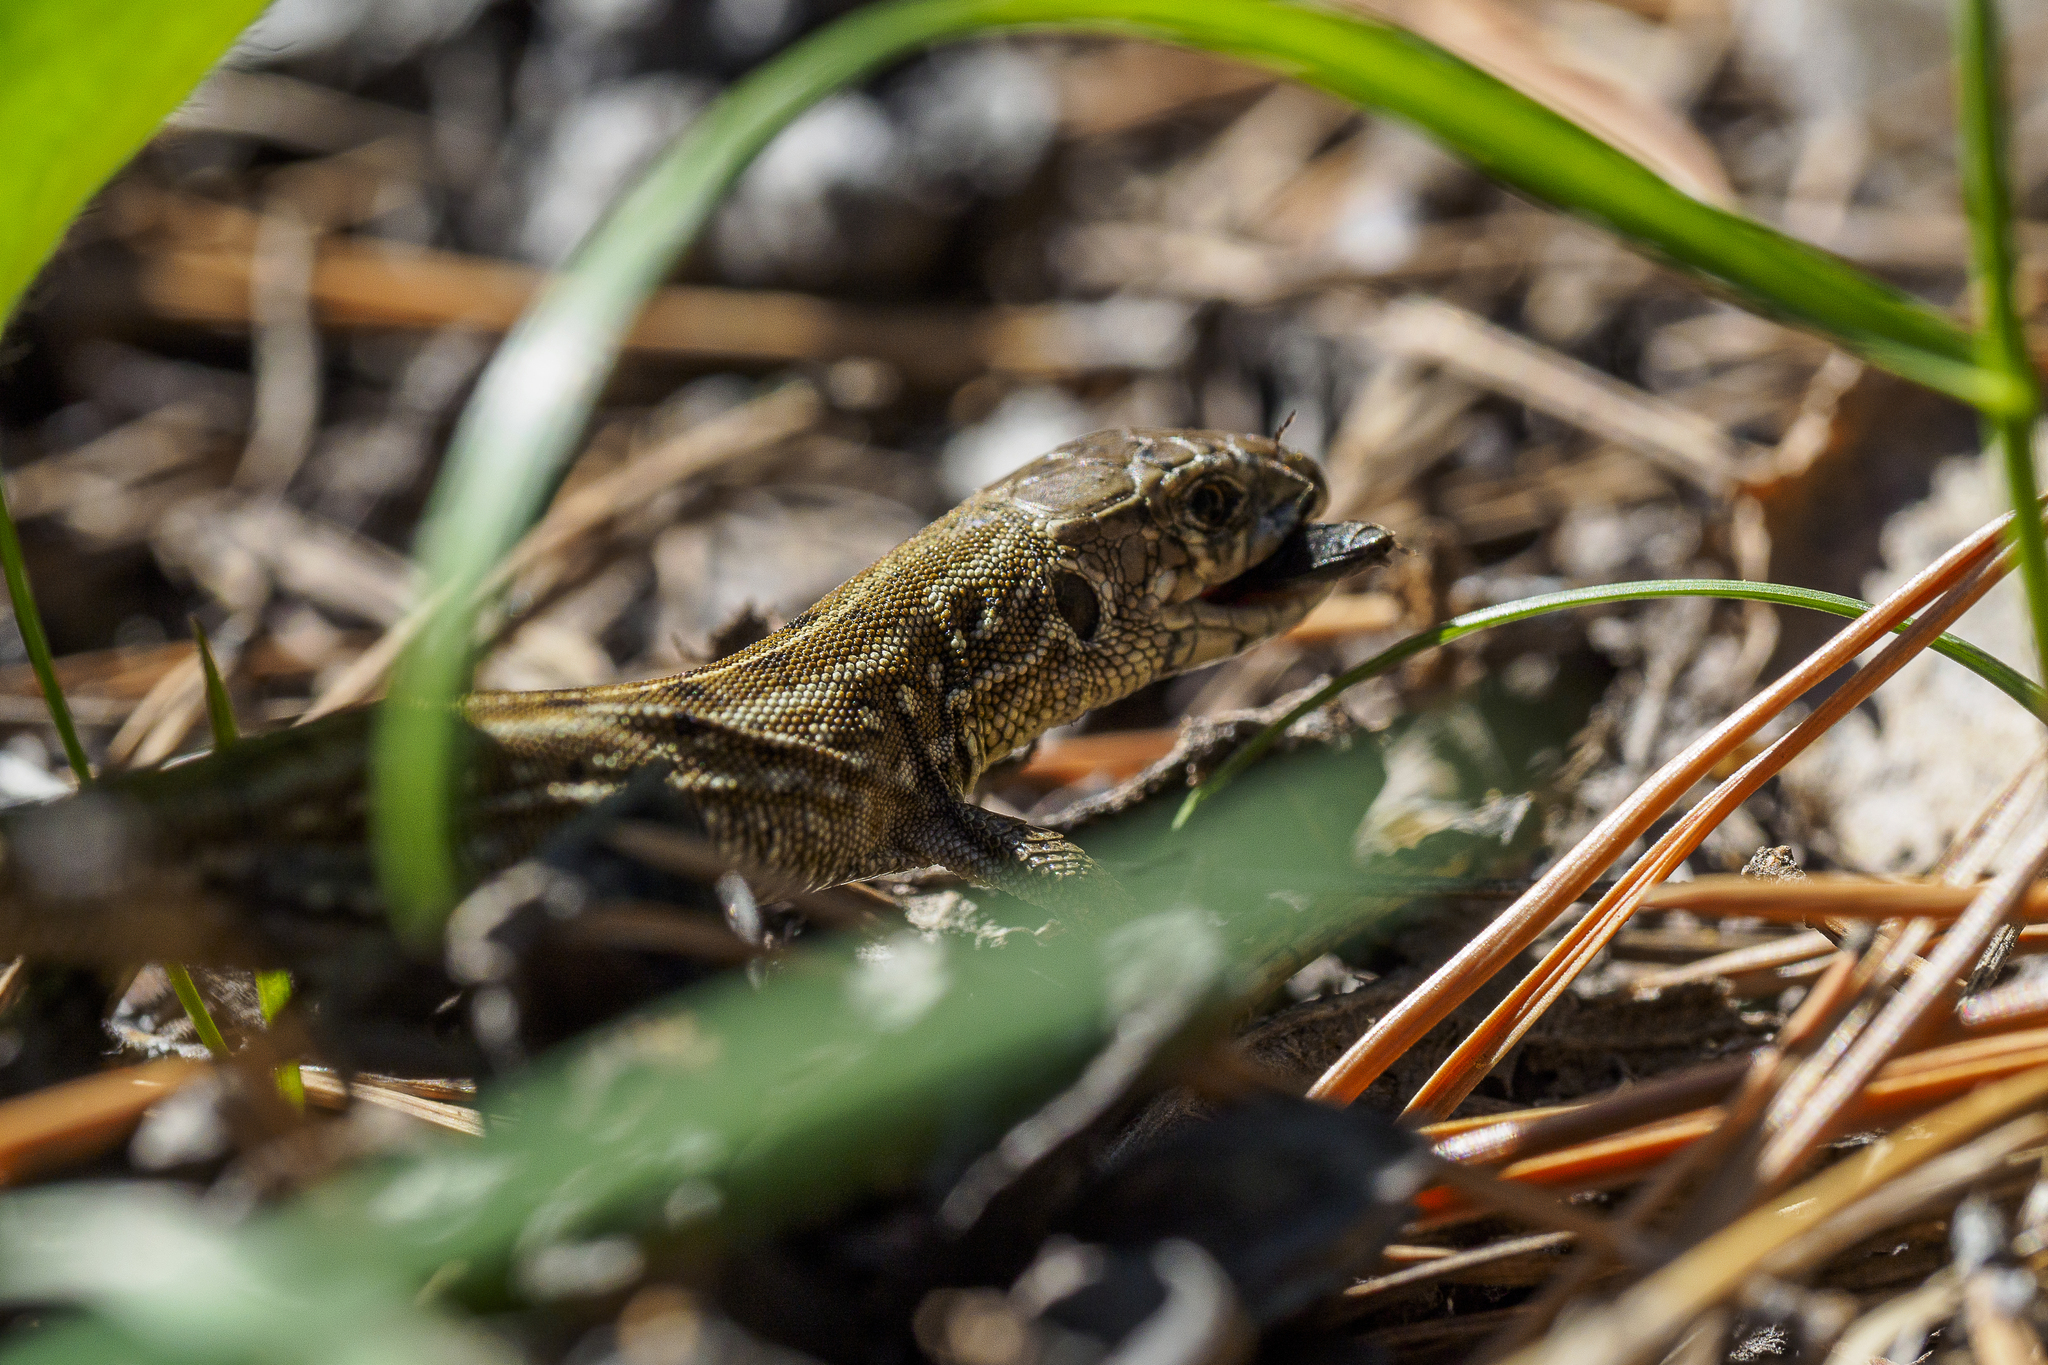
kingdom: Animalia
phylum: Chordata
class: Squamata
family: Lacertidae
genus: Lacerta
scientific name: Lacerta agilis
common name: Sand lizard
